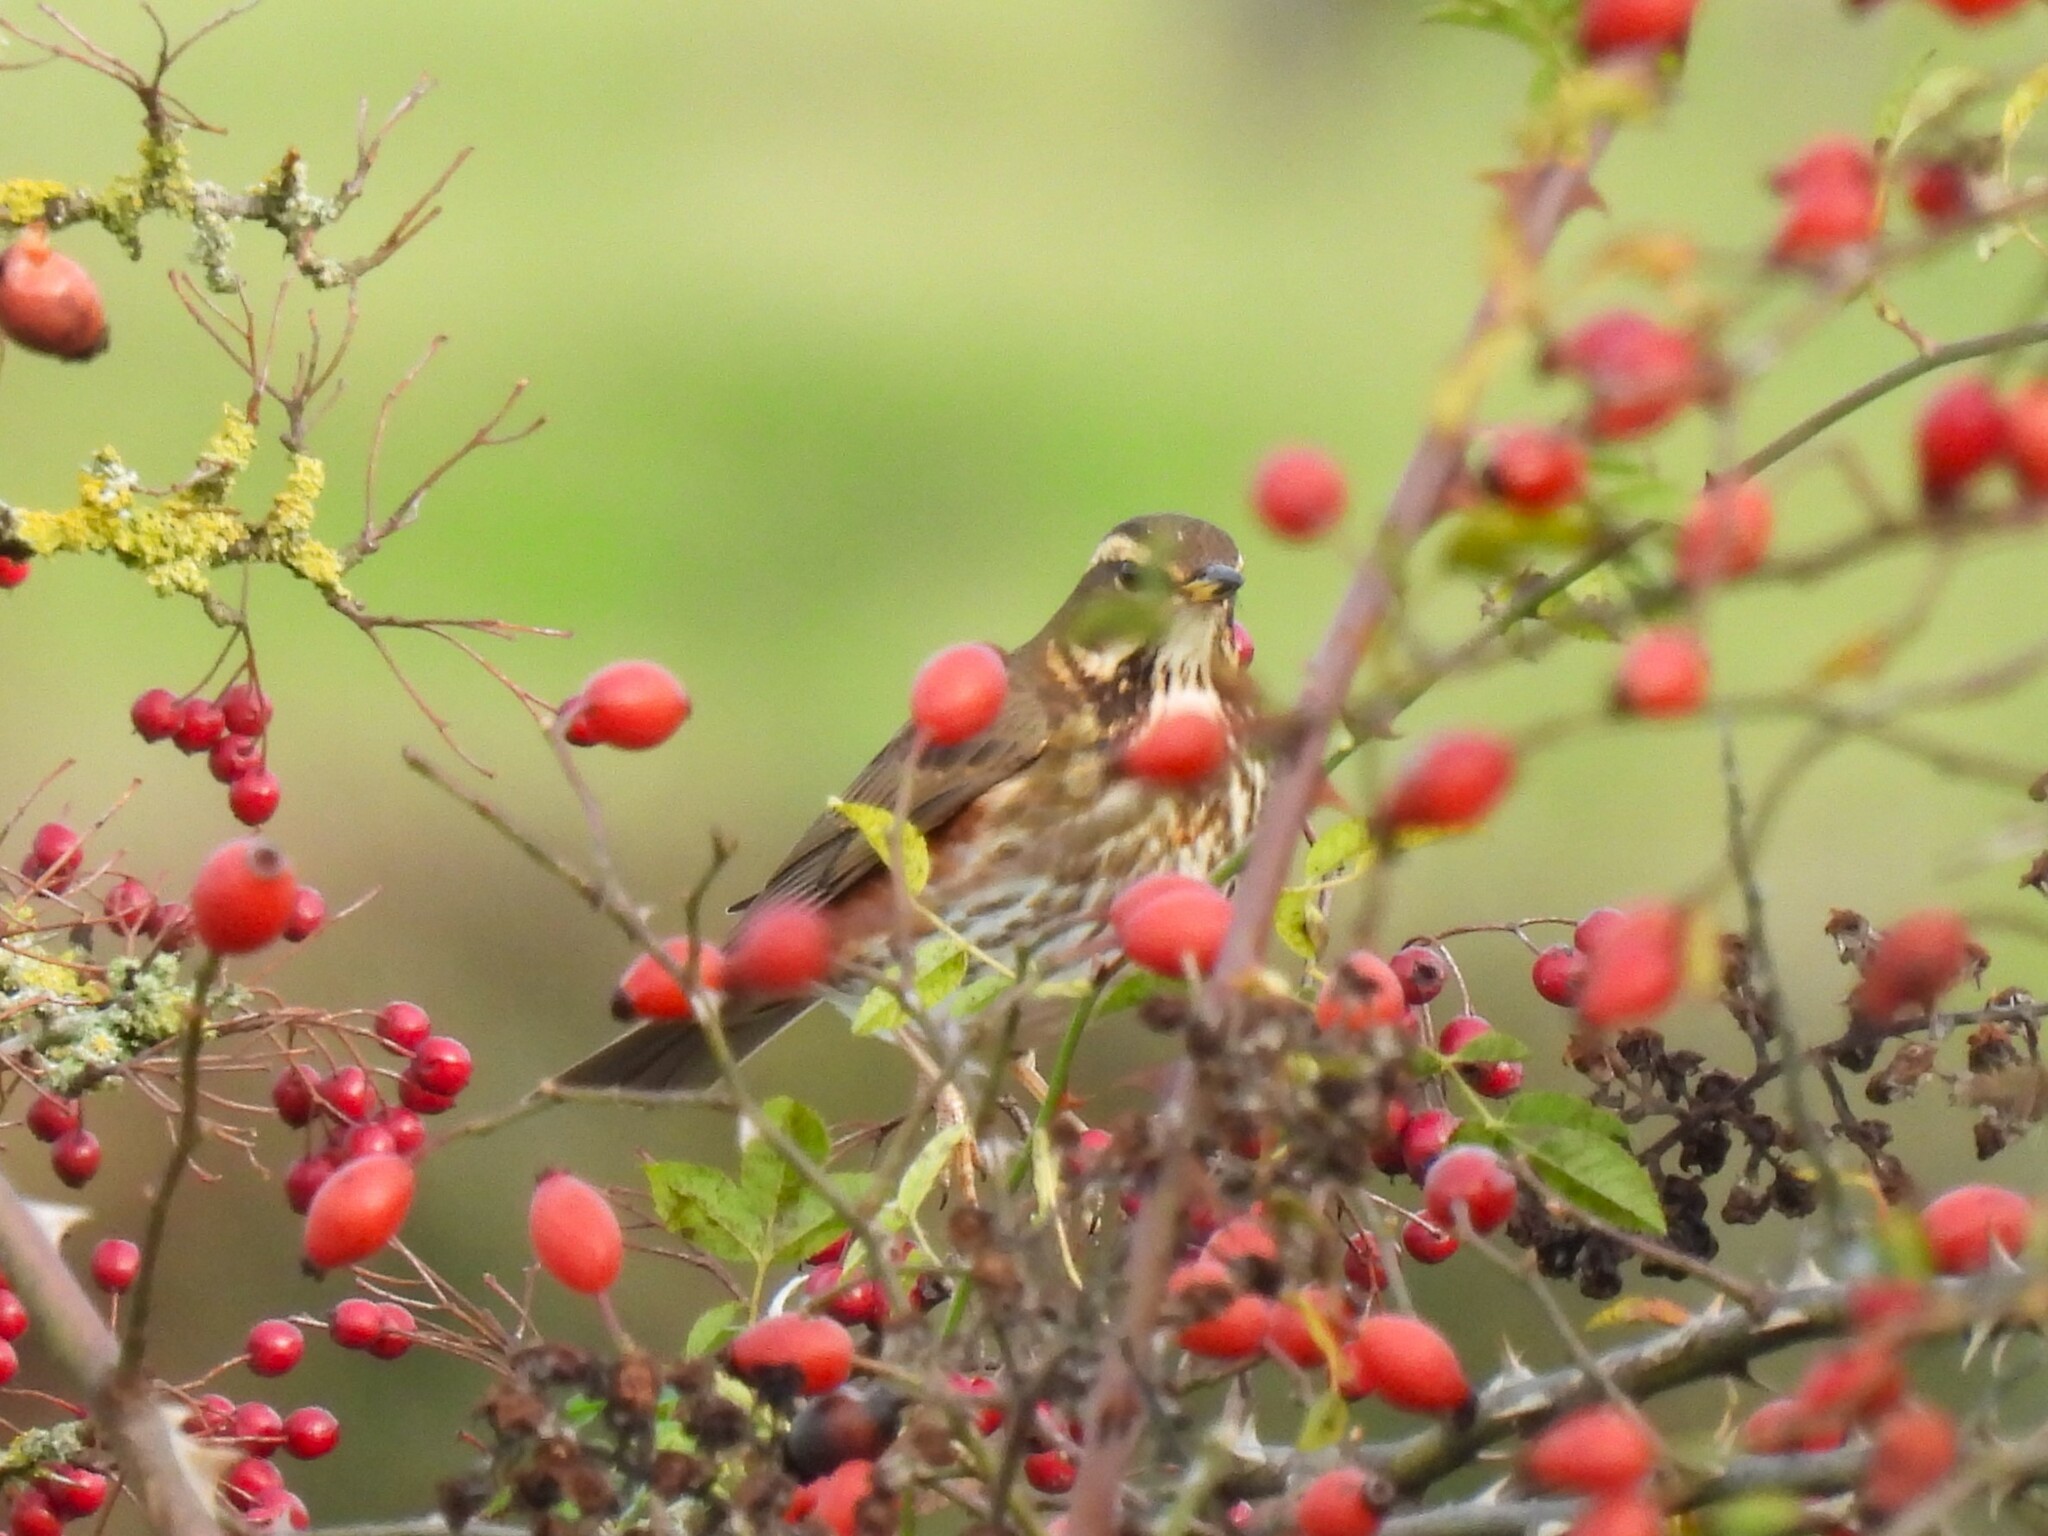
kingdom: Animalia
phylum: Chordata
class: Aves
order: Passeriformes
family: Turdidae
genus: Turdus
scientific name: Turdus iliacus
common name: Redwing
